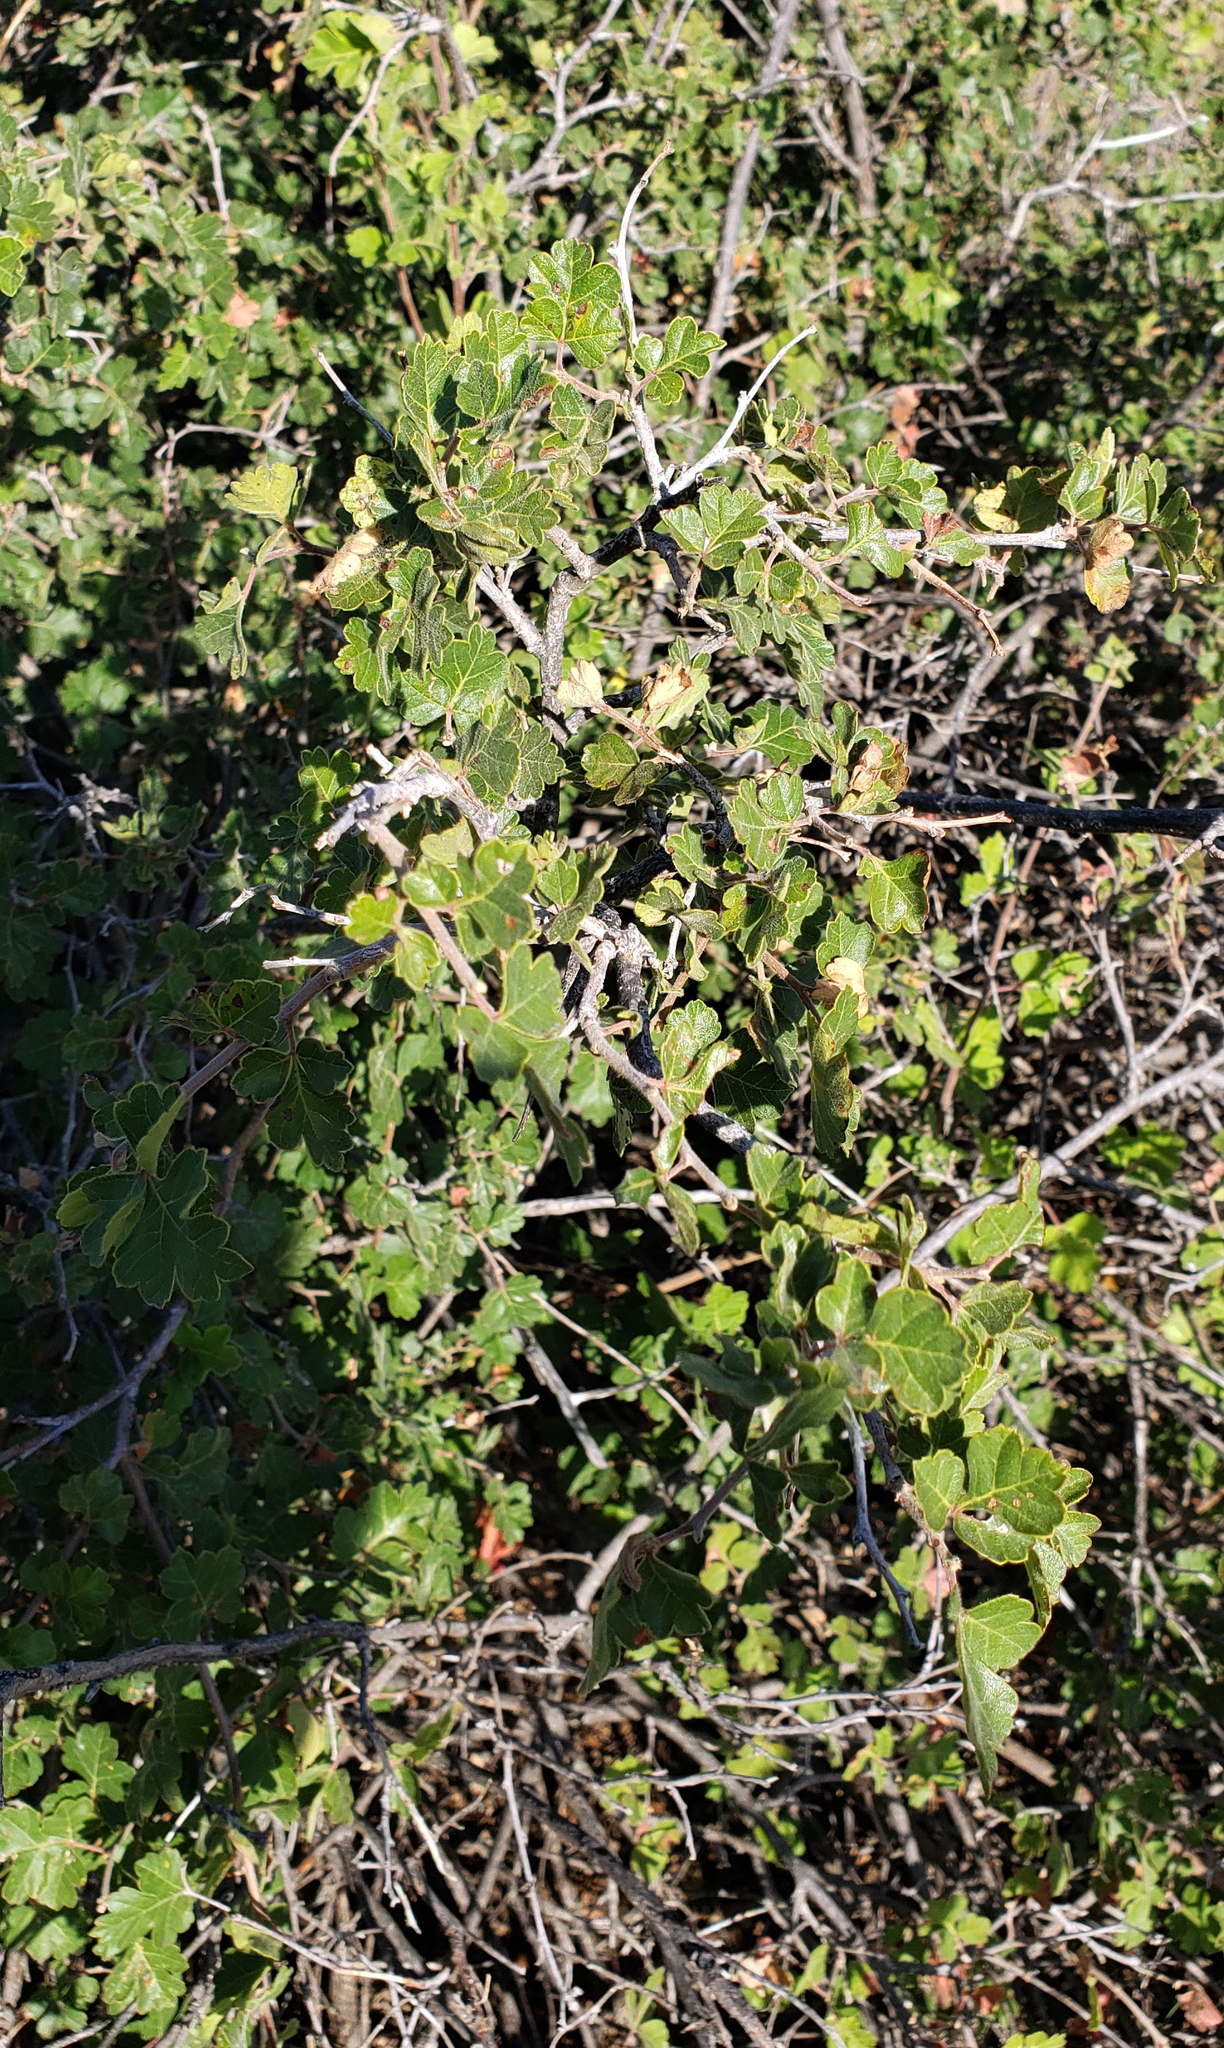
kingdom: Plantae
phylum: Tracheophyta
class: Magnoliopsida
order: Sapindales
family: Anacardiaceae
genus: Rhus
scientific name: Rhus trilobata
